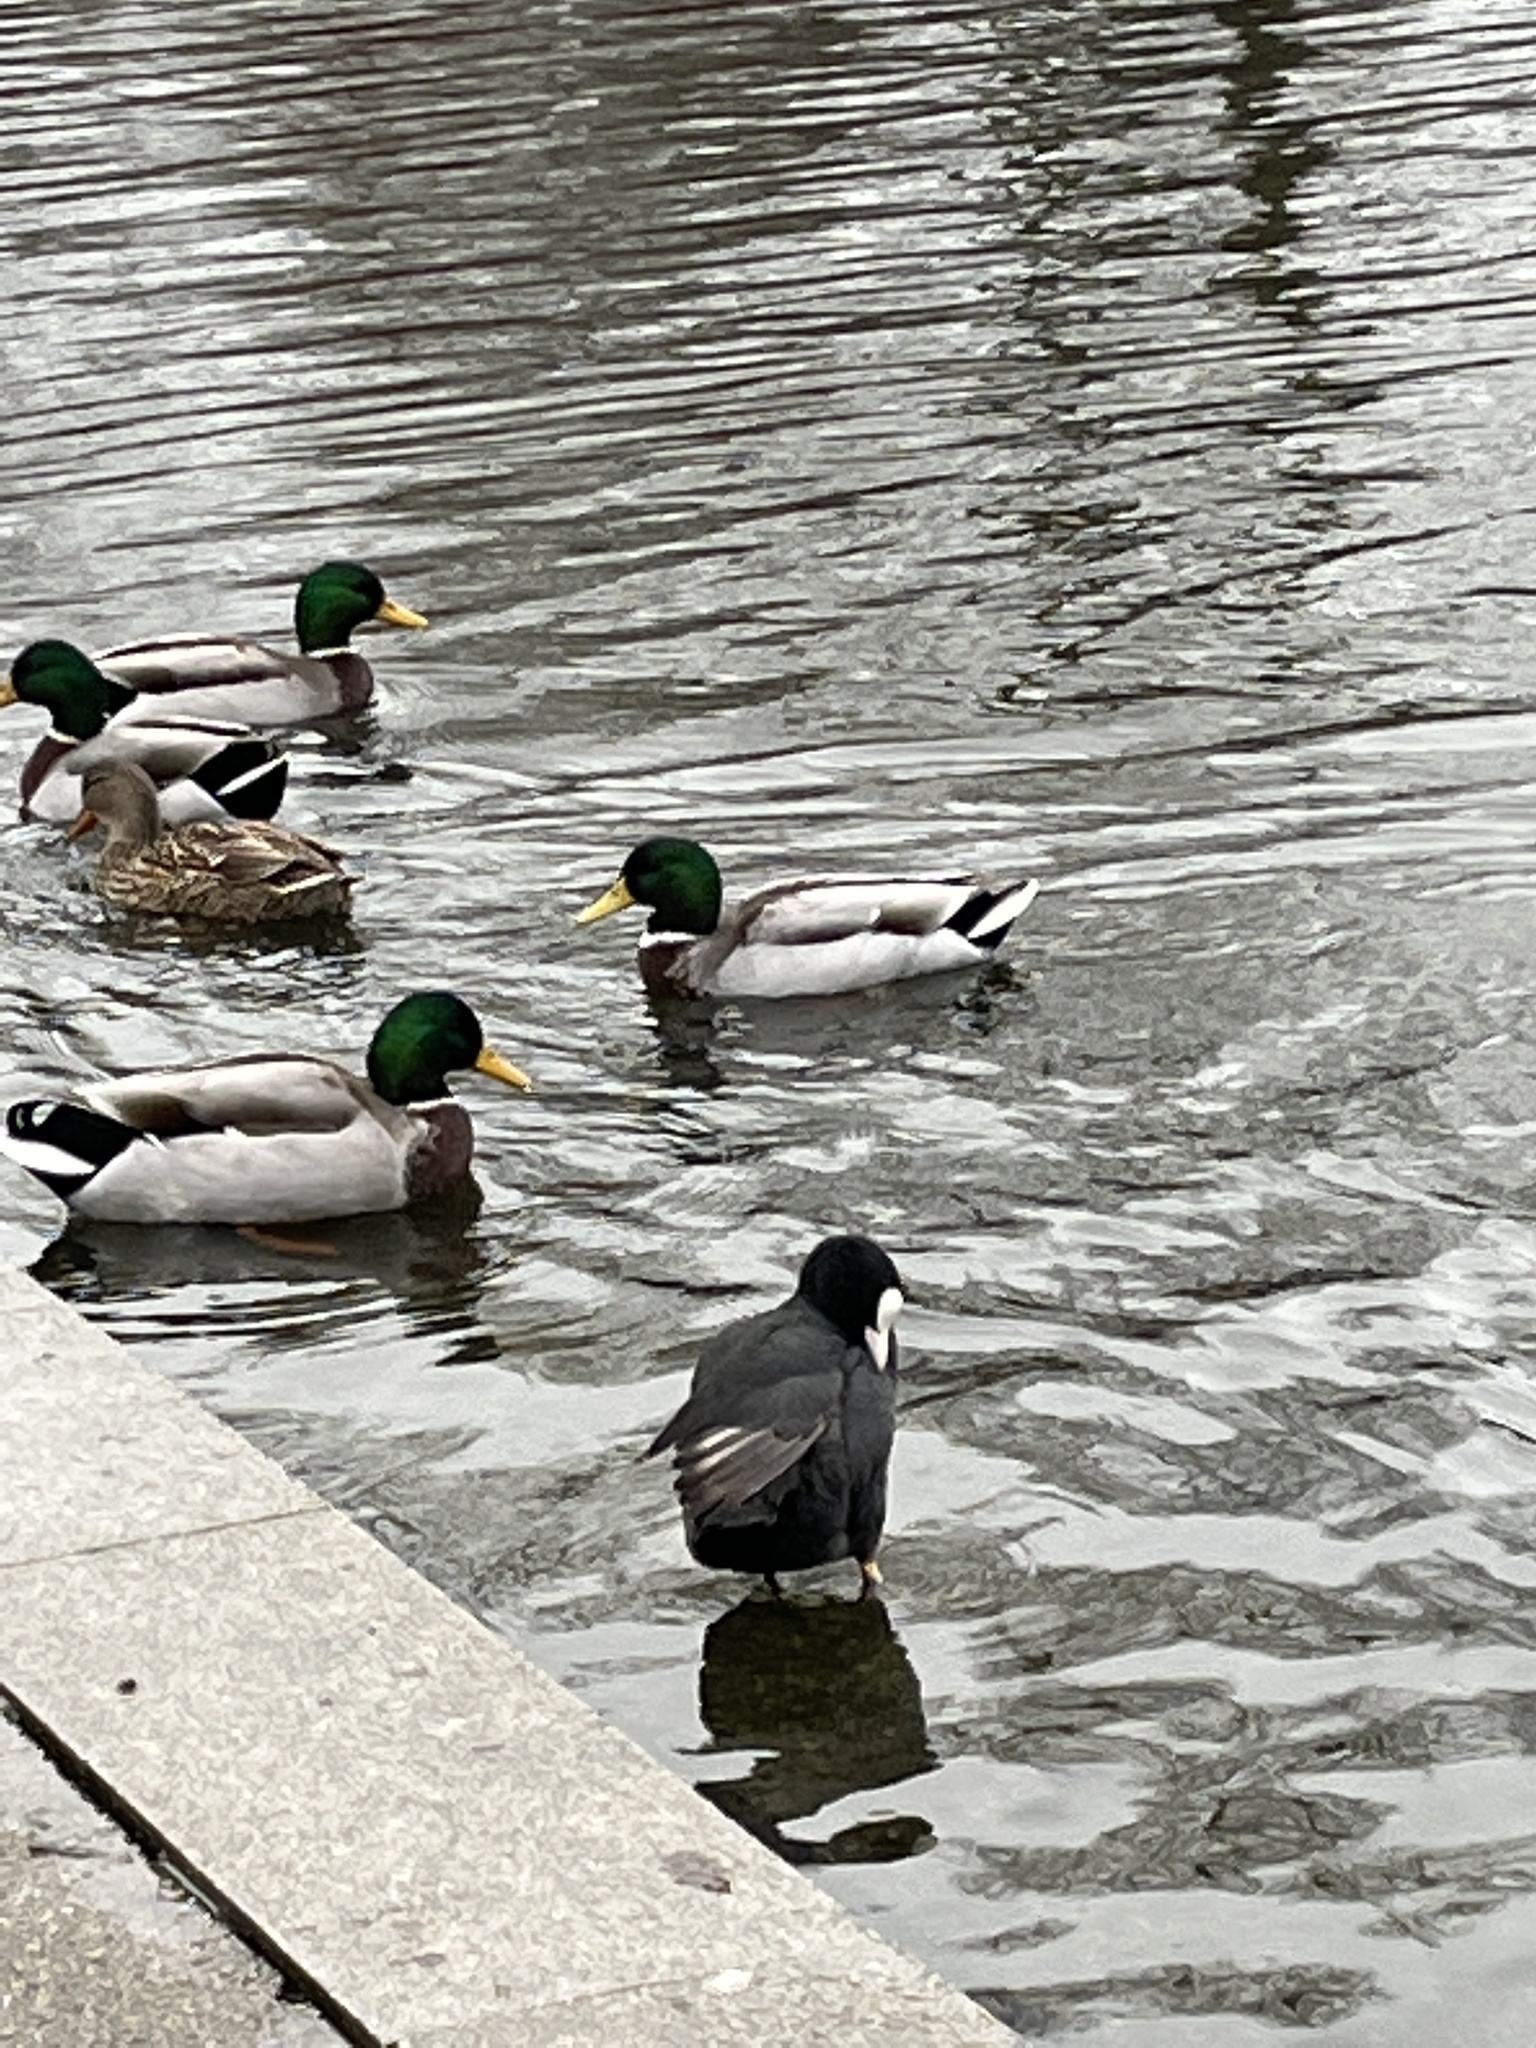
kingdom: Animalia
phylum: Chordata
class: Aves
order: Gruiformes
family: Rallidae
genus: Fulica
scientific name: Fulica atra
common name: Eurasian coot
